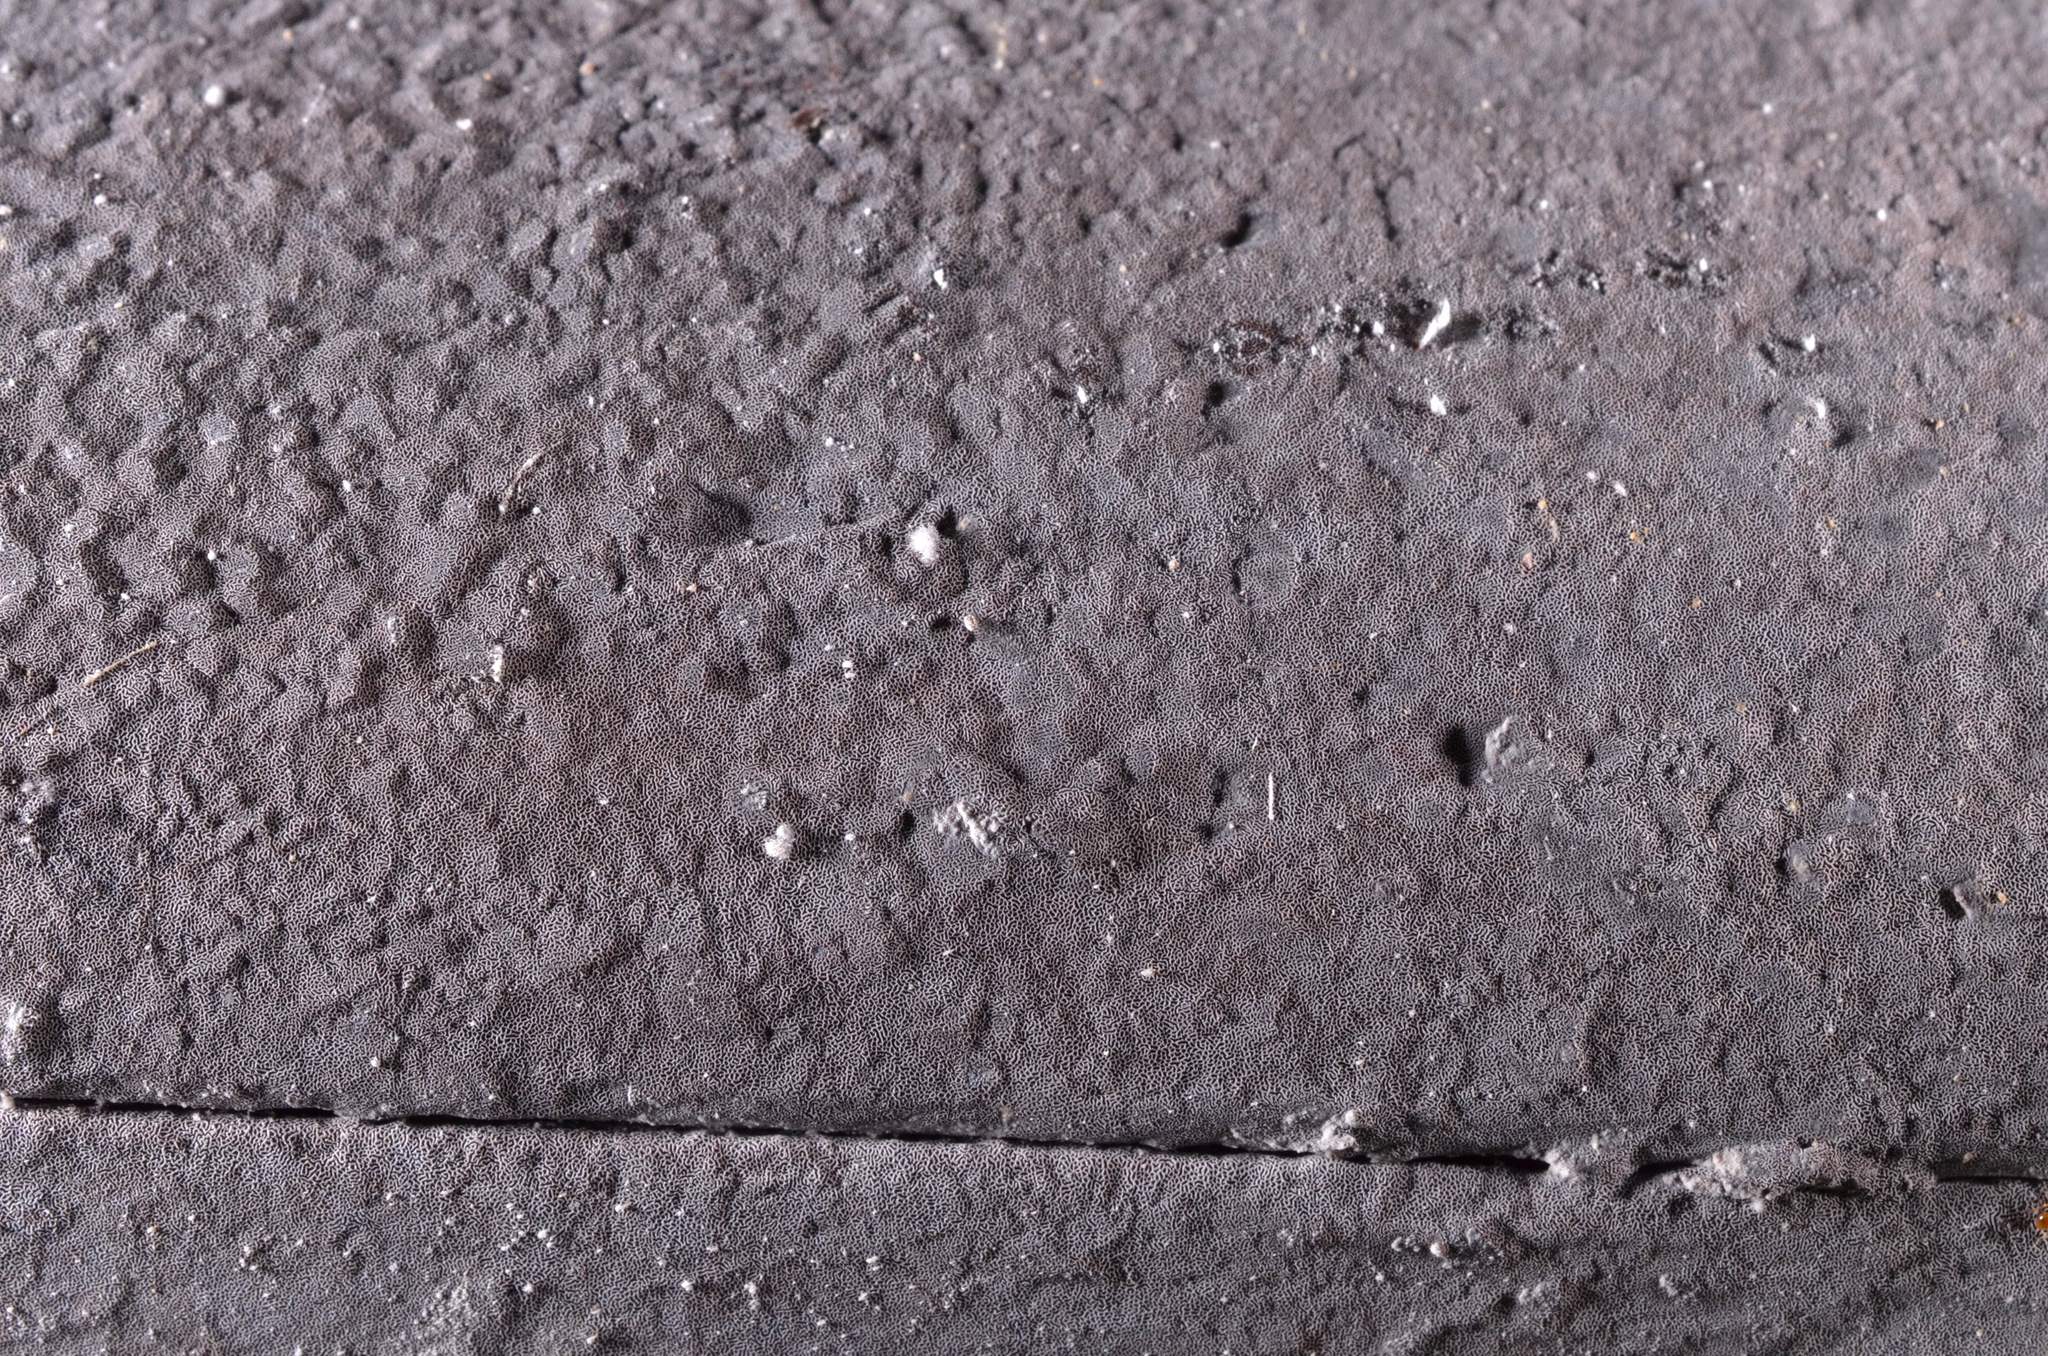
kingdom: Fungi
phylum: Basidiomycota
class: Agaricomycetes
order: Polyporales
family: Polyporaceae
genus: Grammothele
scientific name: Grammothele fuligo
